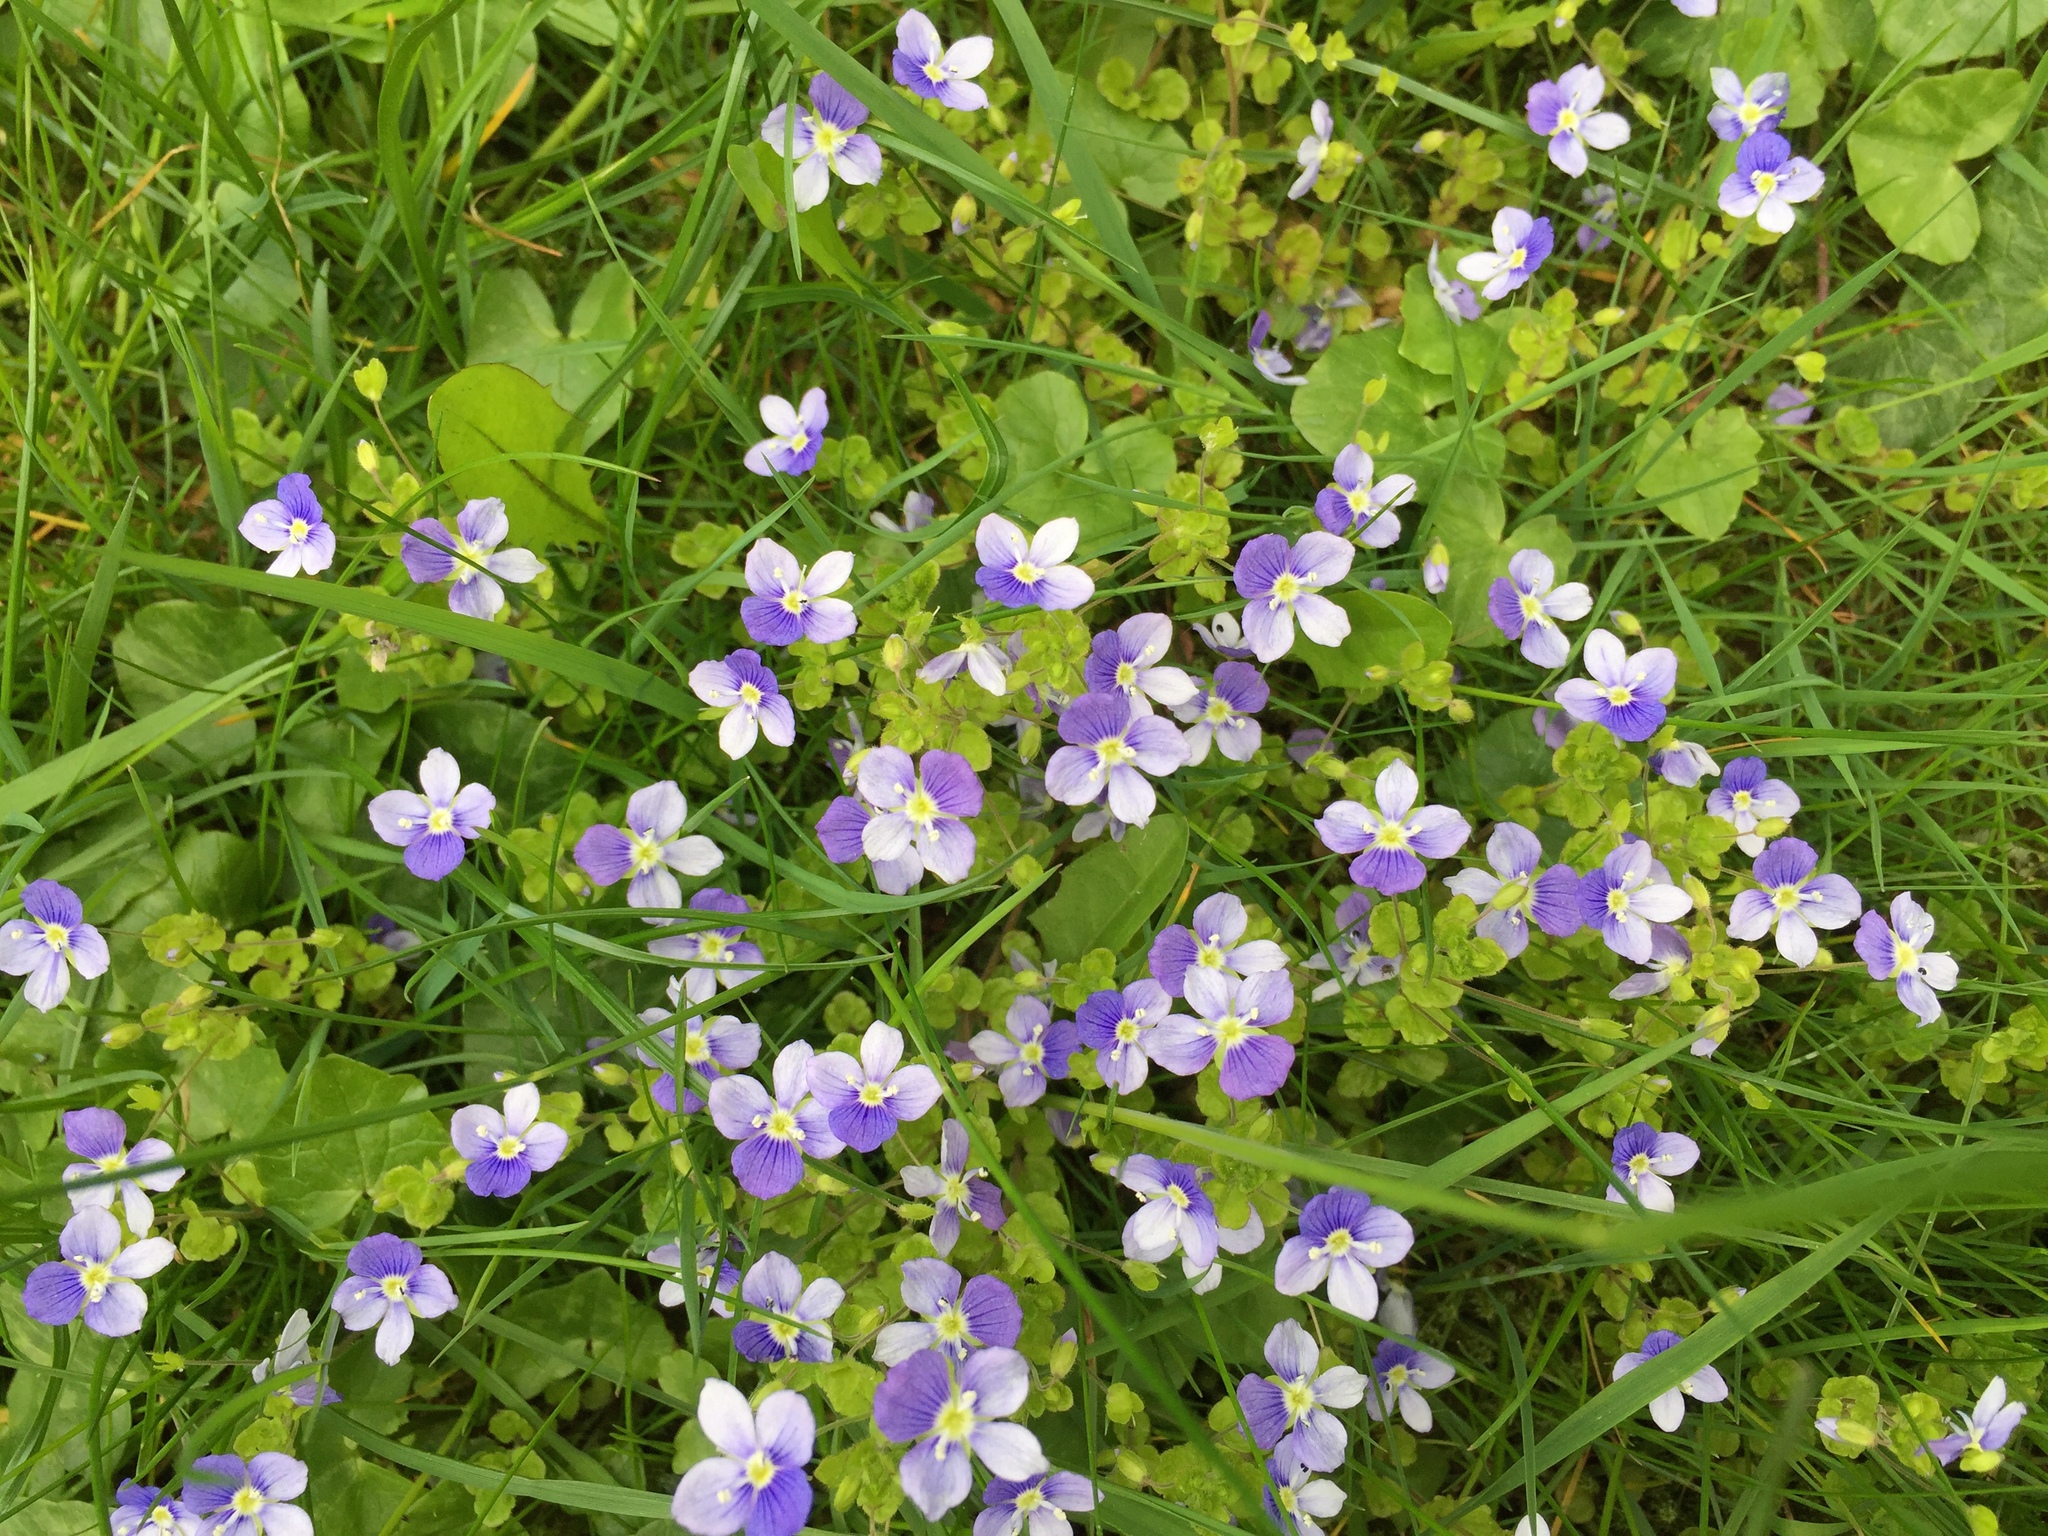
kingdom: Plantae
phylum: Tracheophyta
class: Magnoliopsida
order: Lamiales
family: Plantaginaceae
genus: Veronica
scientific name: Veronica filiformis
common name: Slender speedwell
